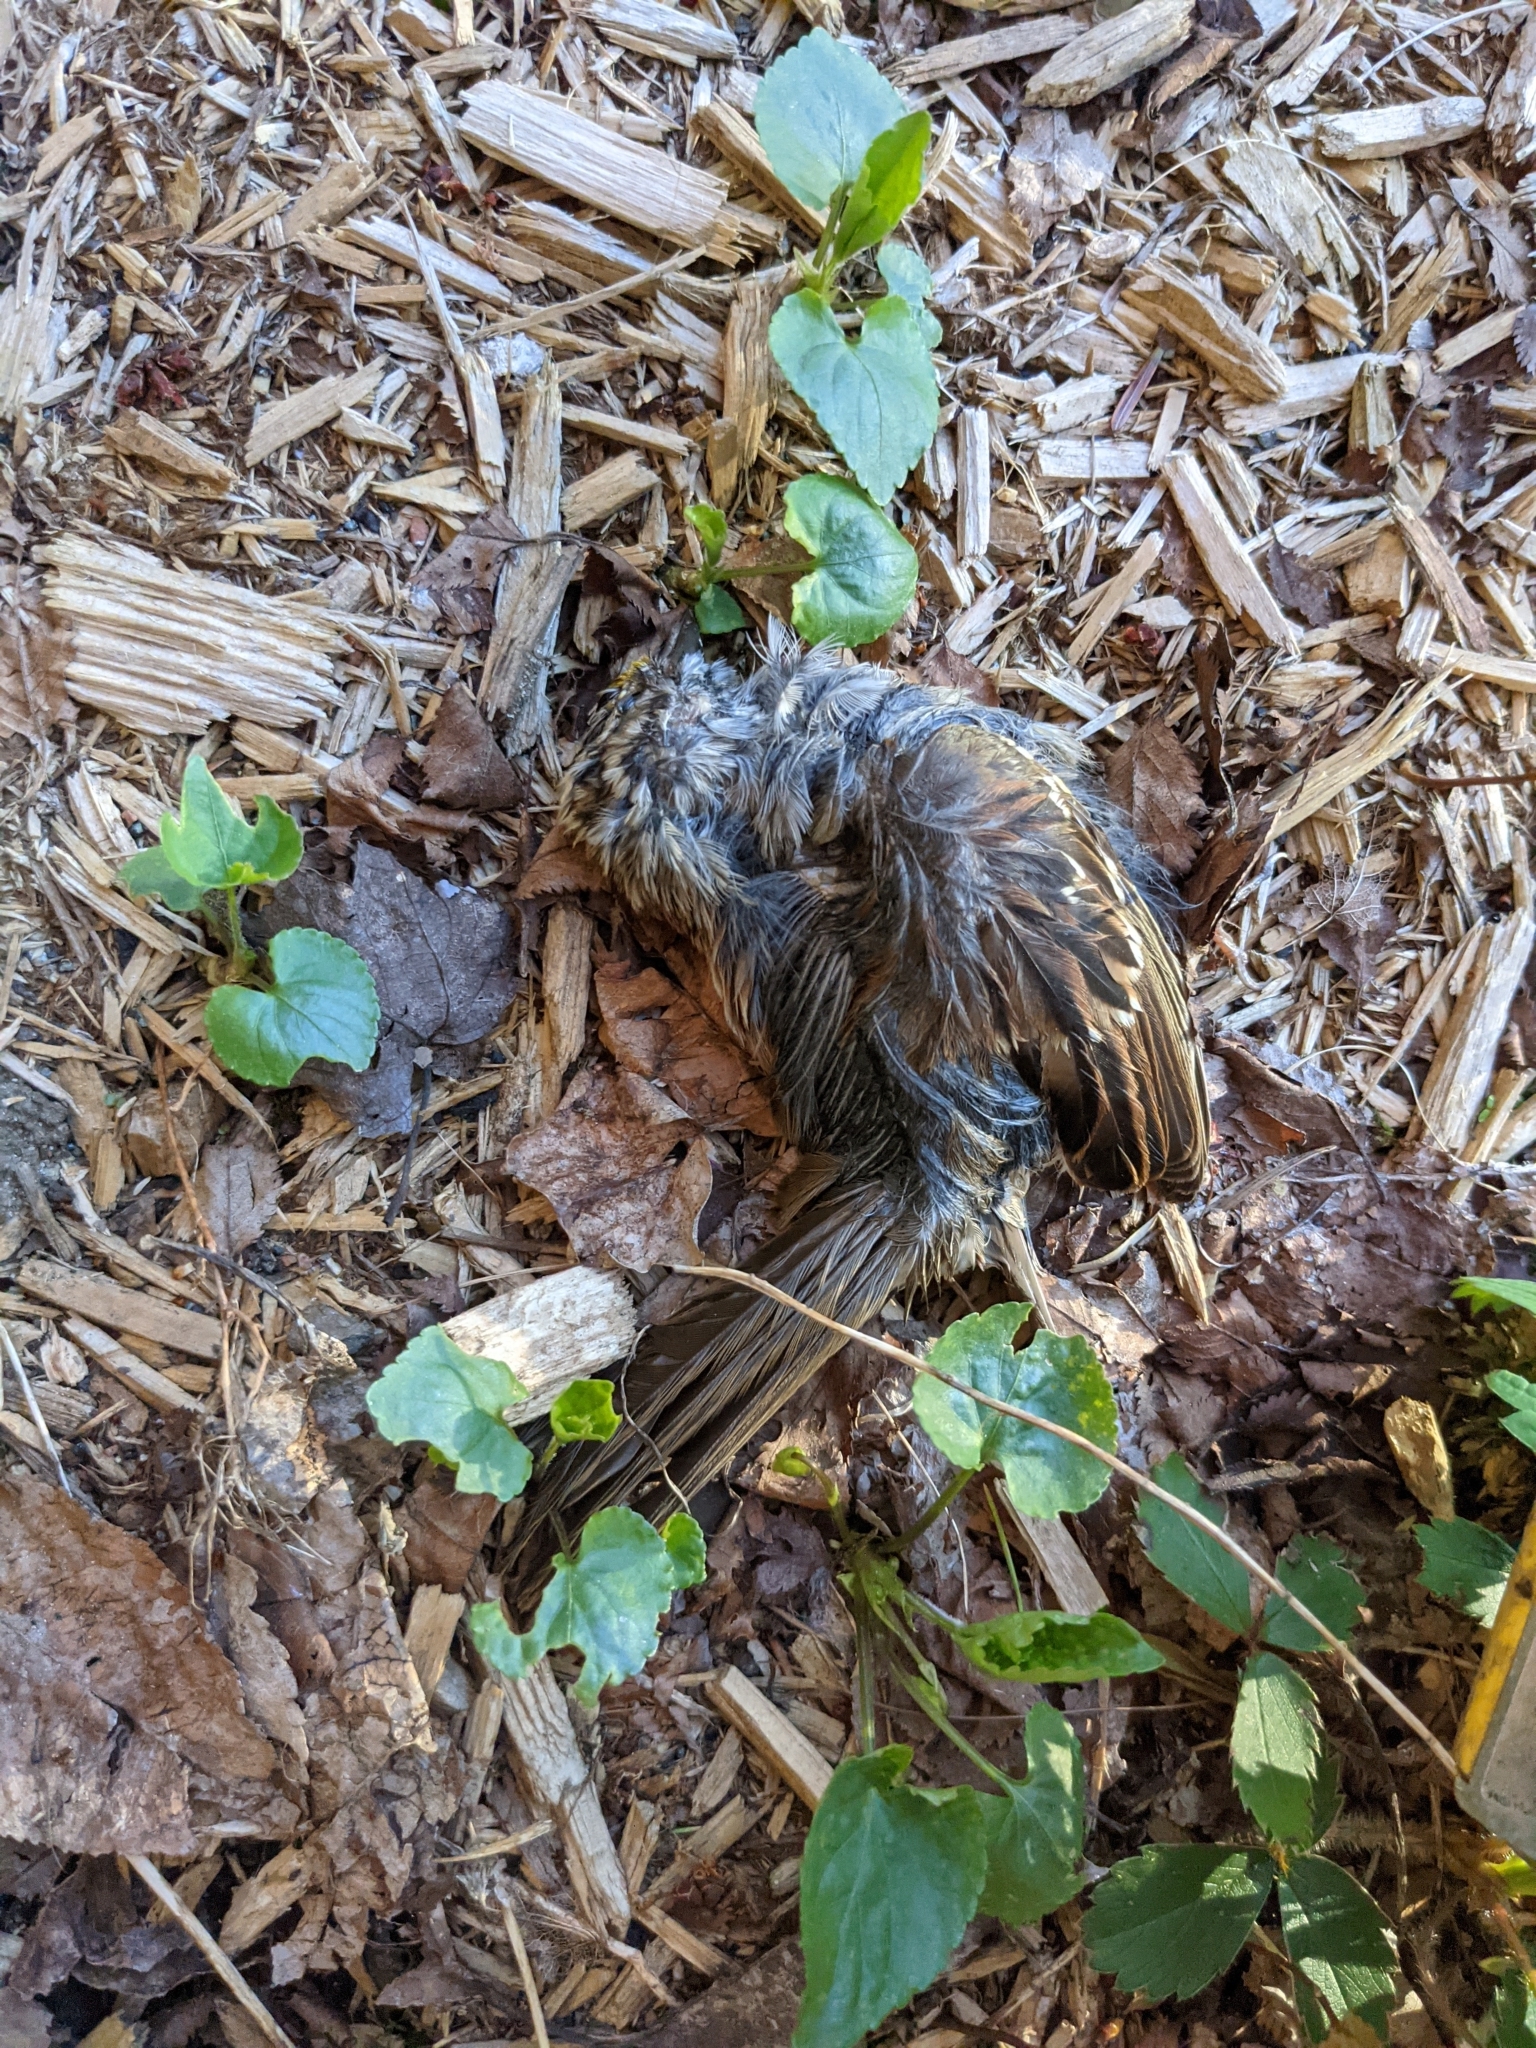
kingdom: Animalia
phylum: Chordata
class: Aves
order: Passeriformes
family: Passerellidae
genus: Zonotrichia
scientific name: Zonotrichia albicollis
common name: White-throated sparrow
